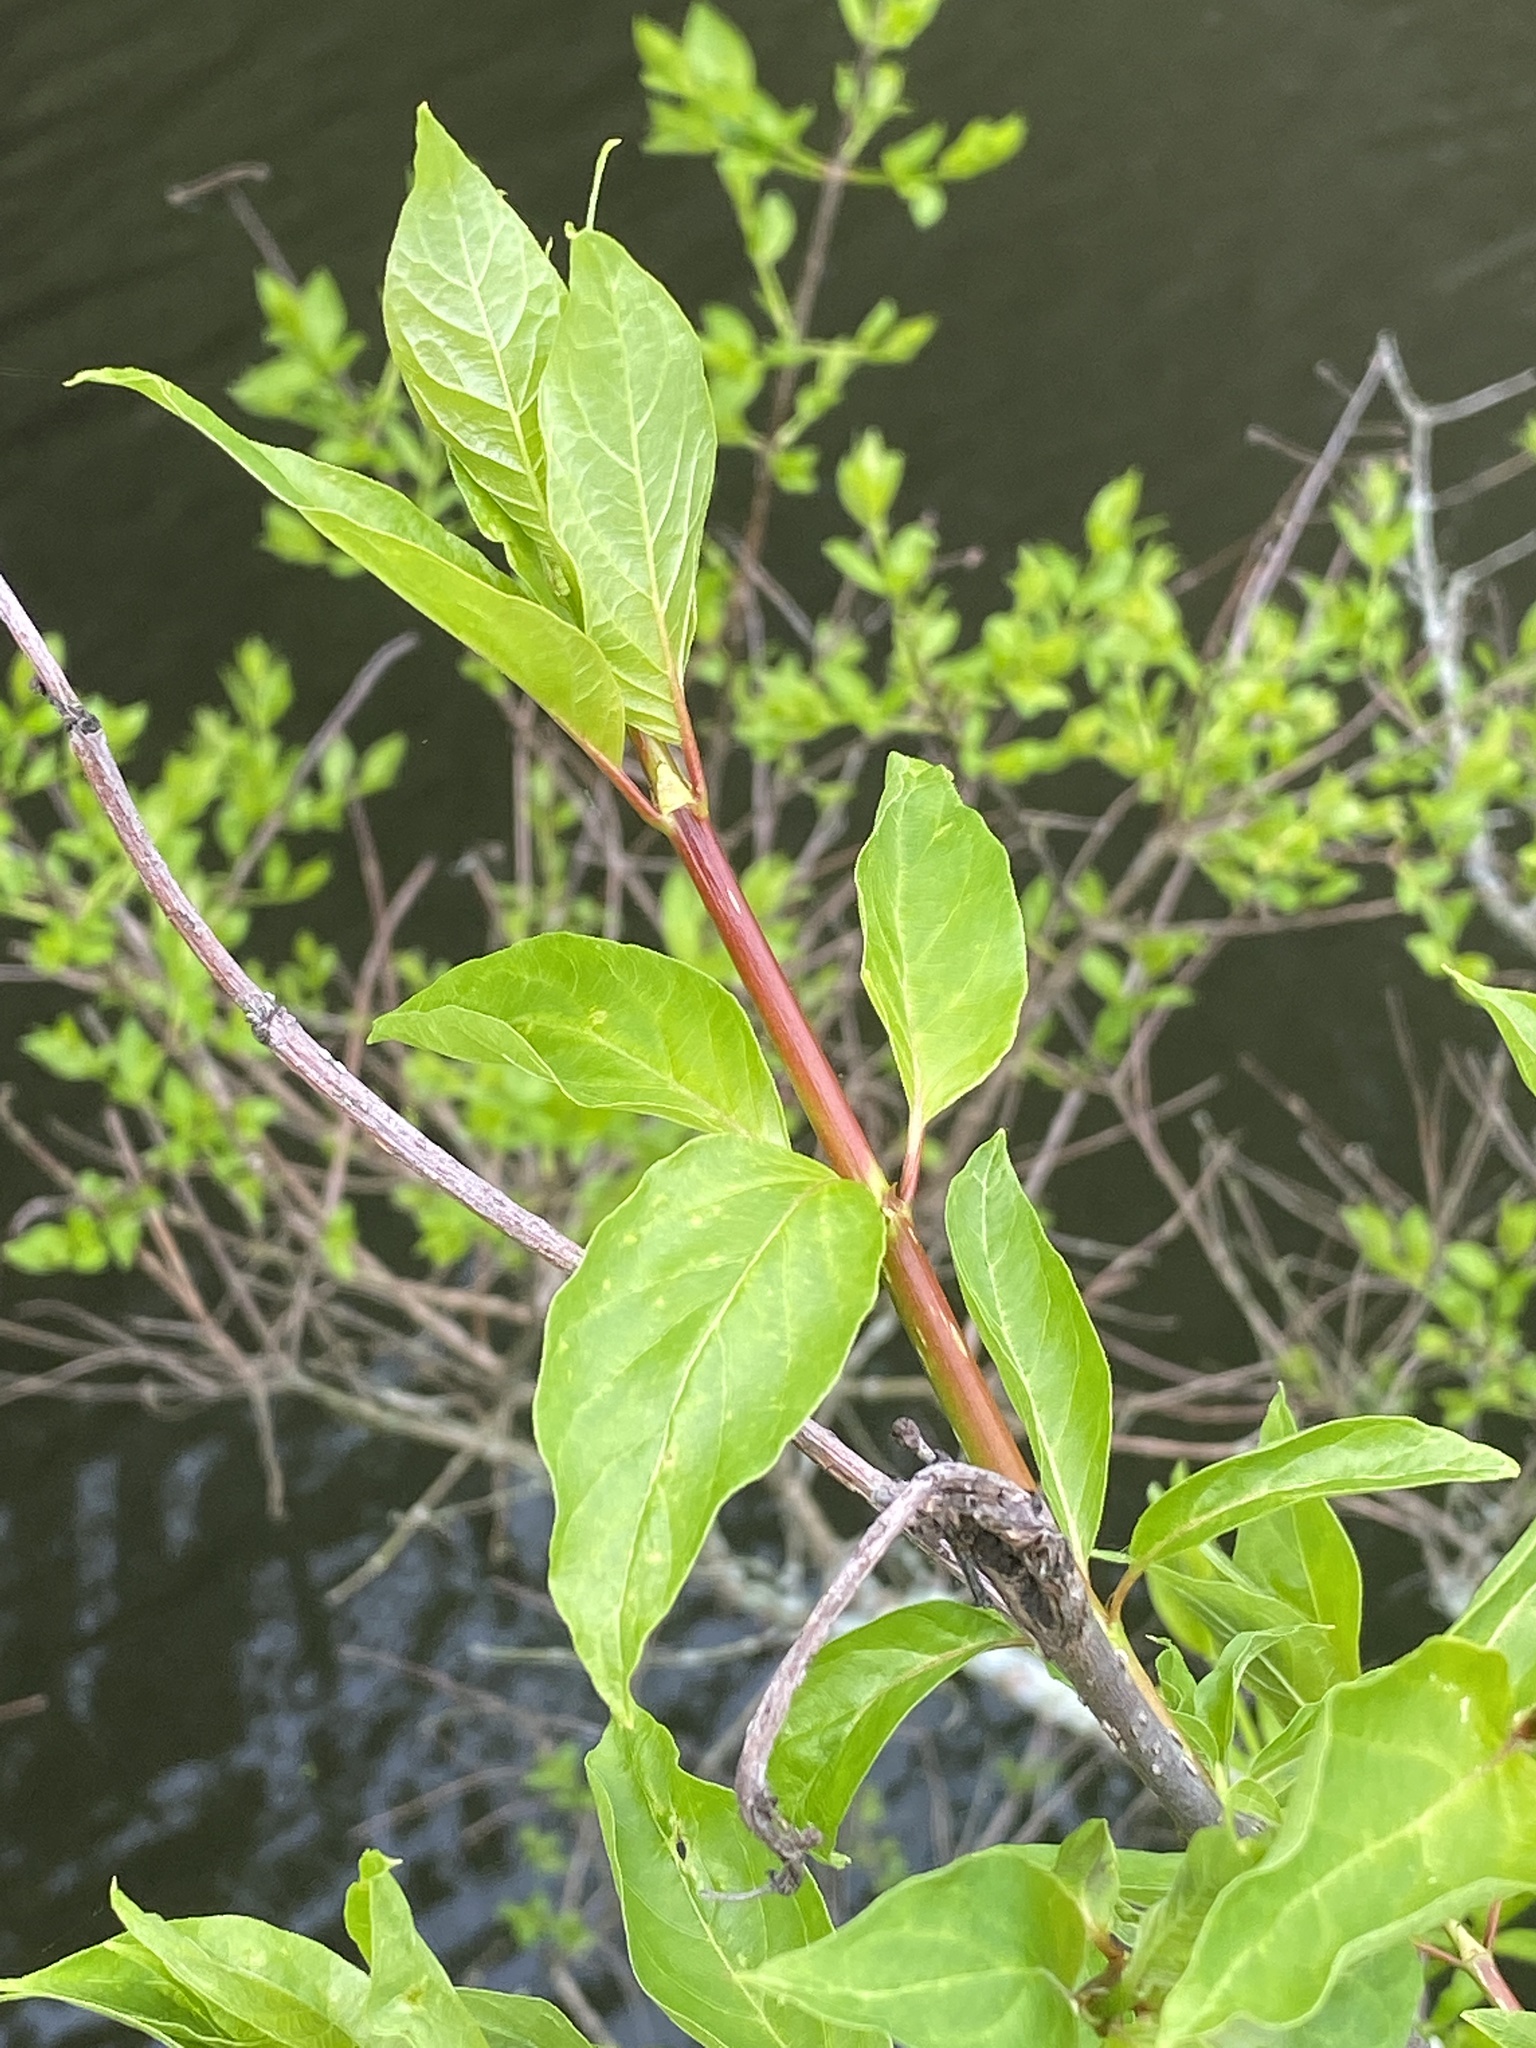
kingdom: Plantae
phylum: Tracheophyta
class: Magnoliopsida
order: Gentianales
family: Rubiaceae
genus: Cephalanthus
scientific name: Cephalanthus occidentalis
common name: Button-willow
